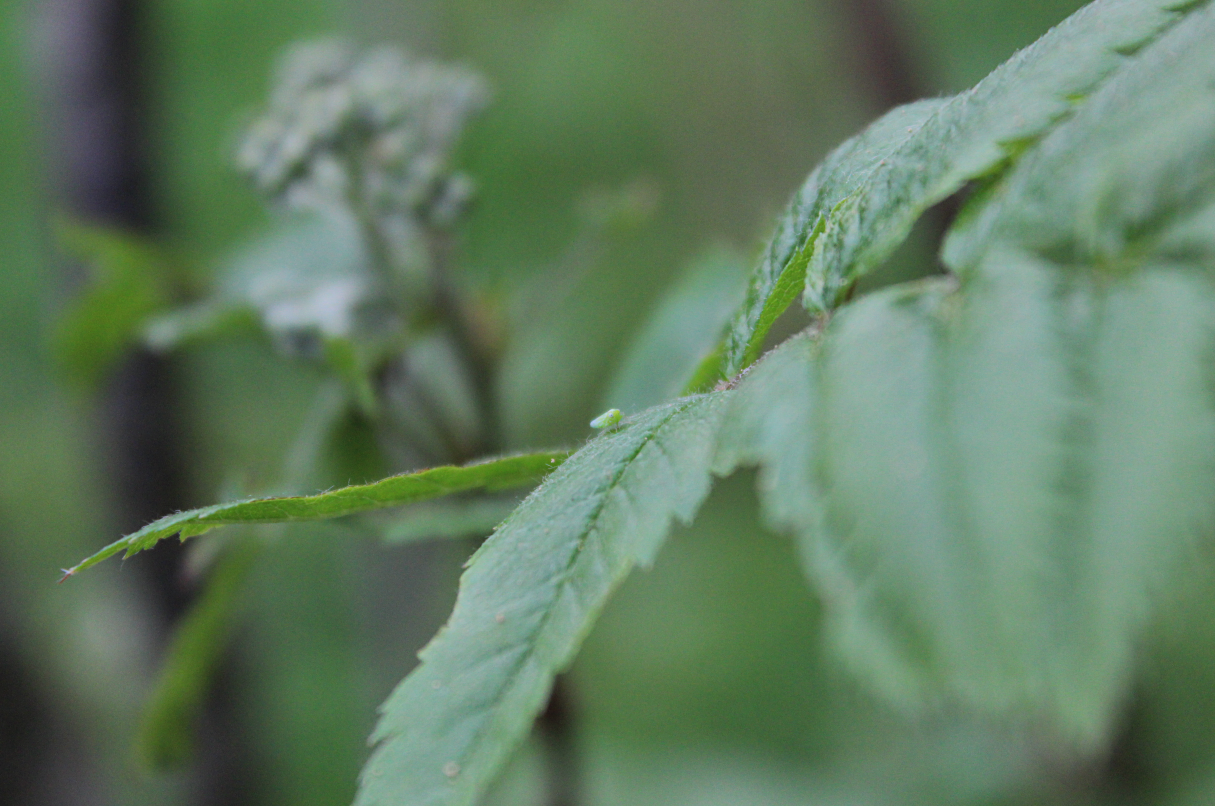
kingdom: Animalia
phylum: Arthropoda
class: Insecta
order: Hemiptera
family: Cicadellidae
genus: Hebata
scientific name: Hebata vitis
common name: The smaller green leafhopper
